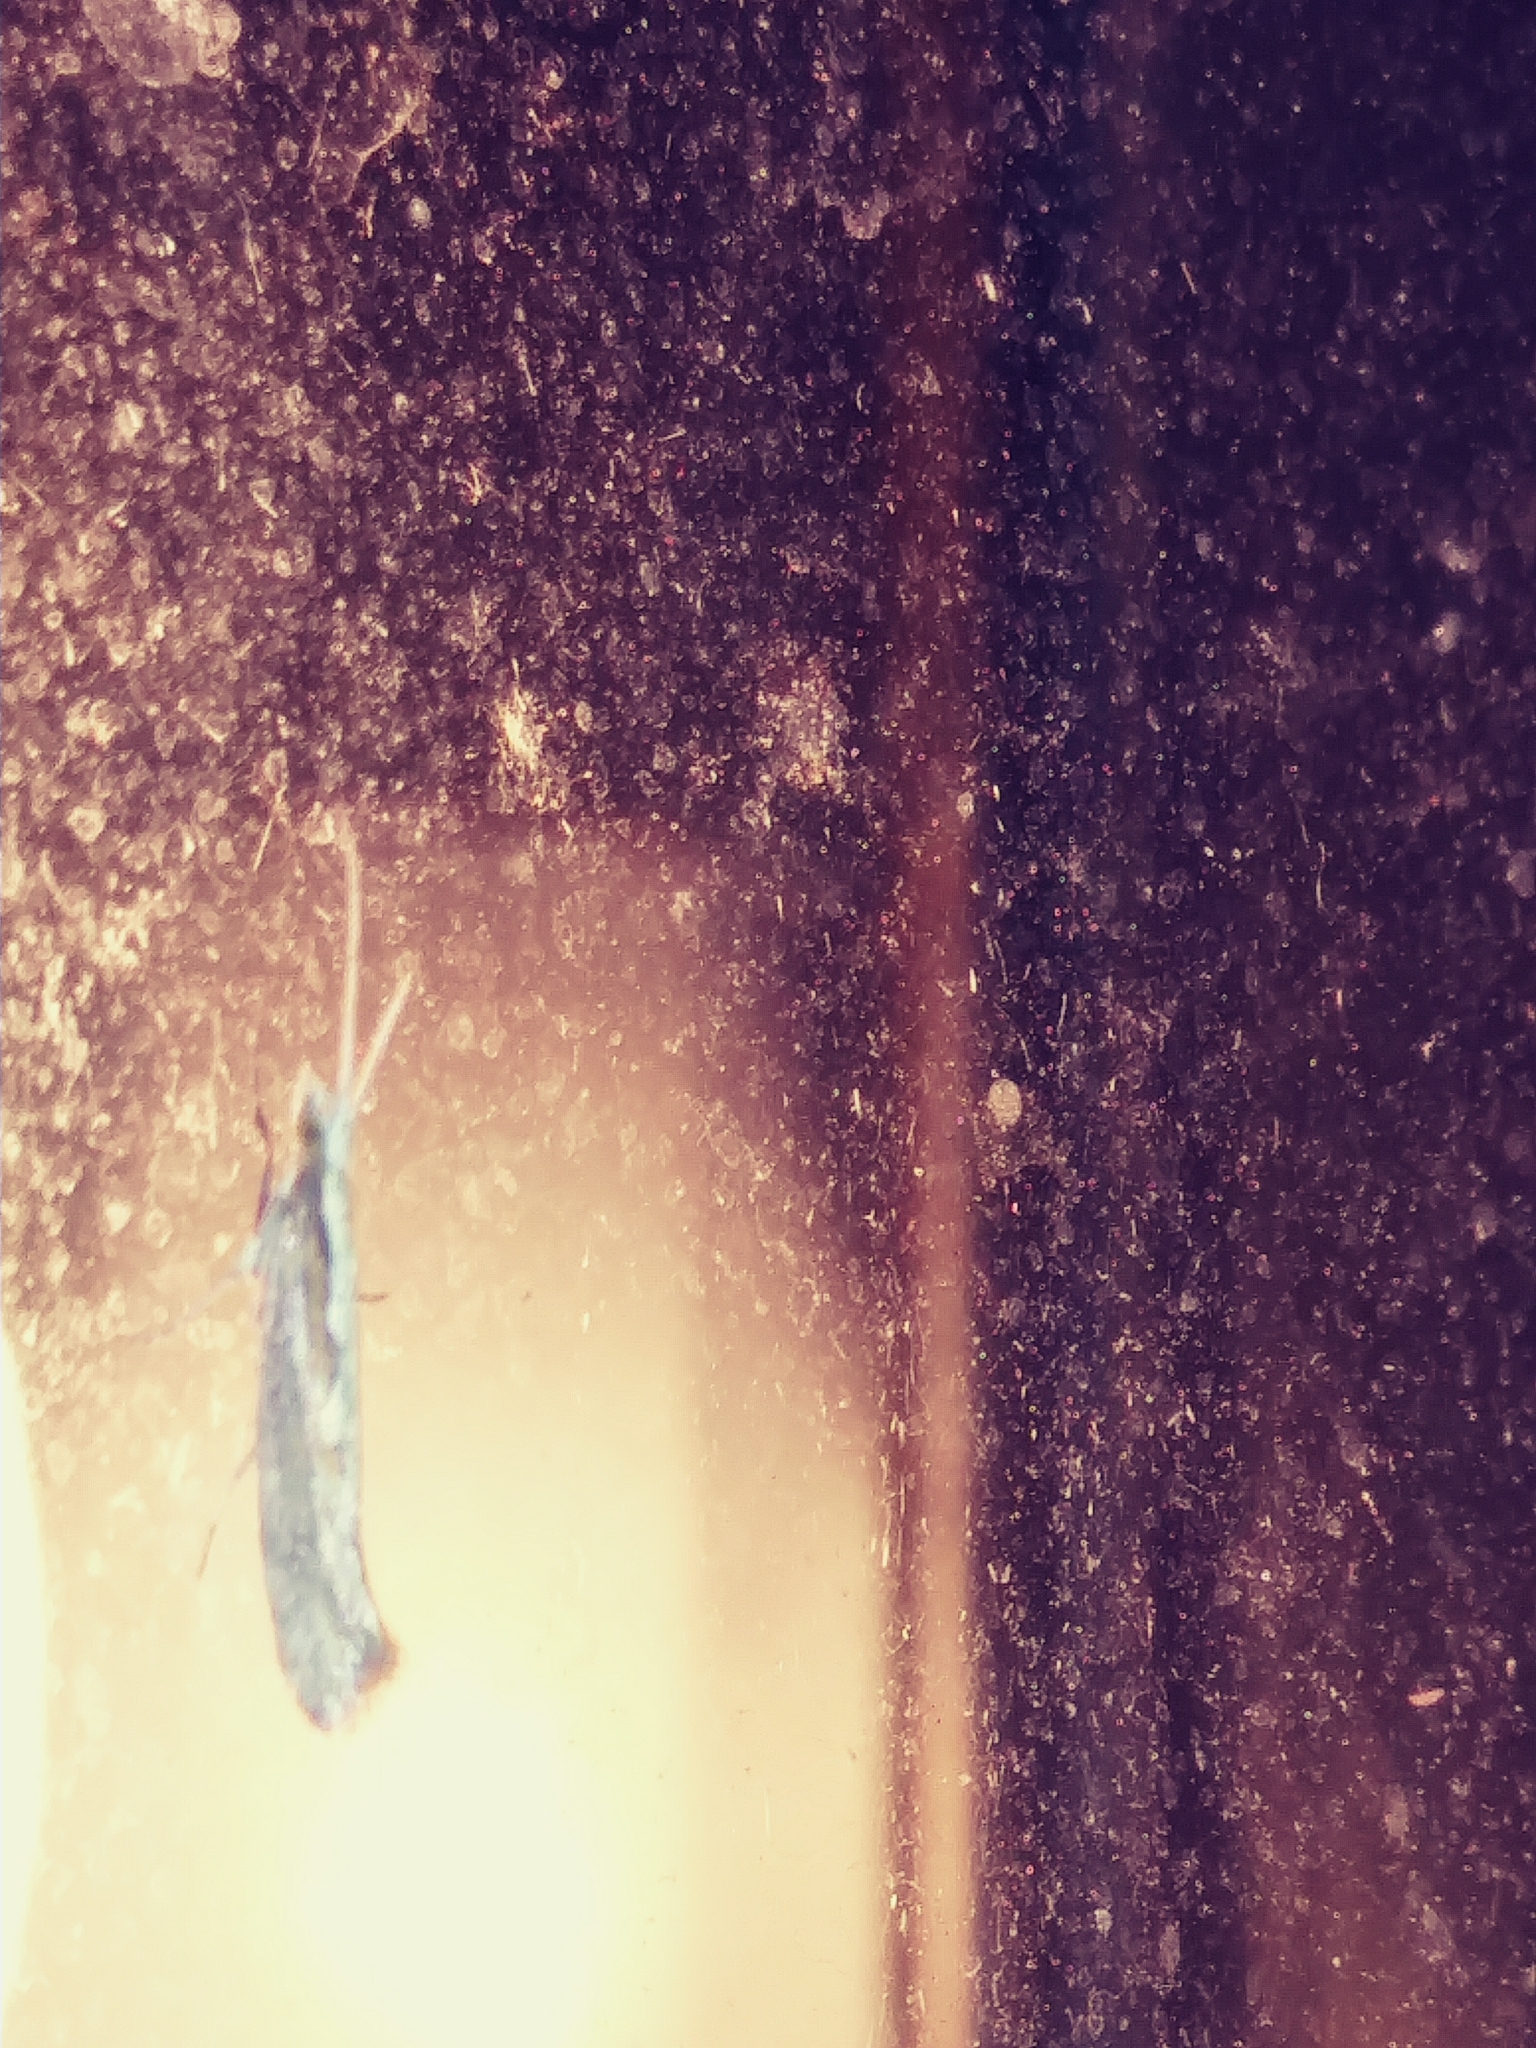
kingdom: Animalia
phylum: Arthropoda
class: Insecta
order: Lepidoptera
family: Plutellidae
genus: Plutella
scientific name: Plutella xylostella
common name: Diamond-back moth
